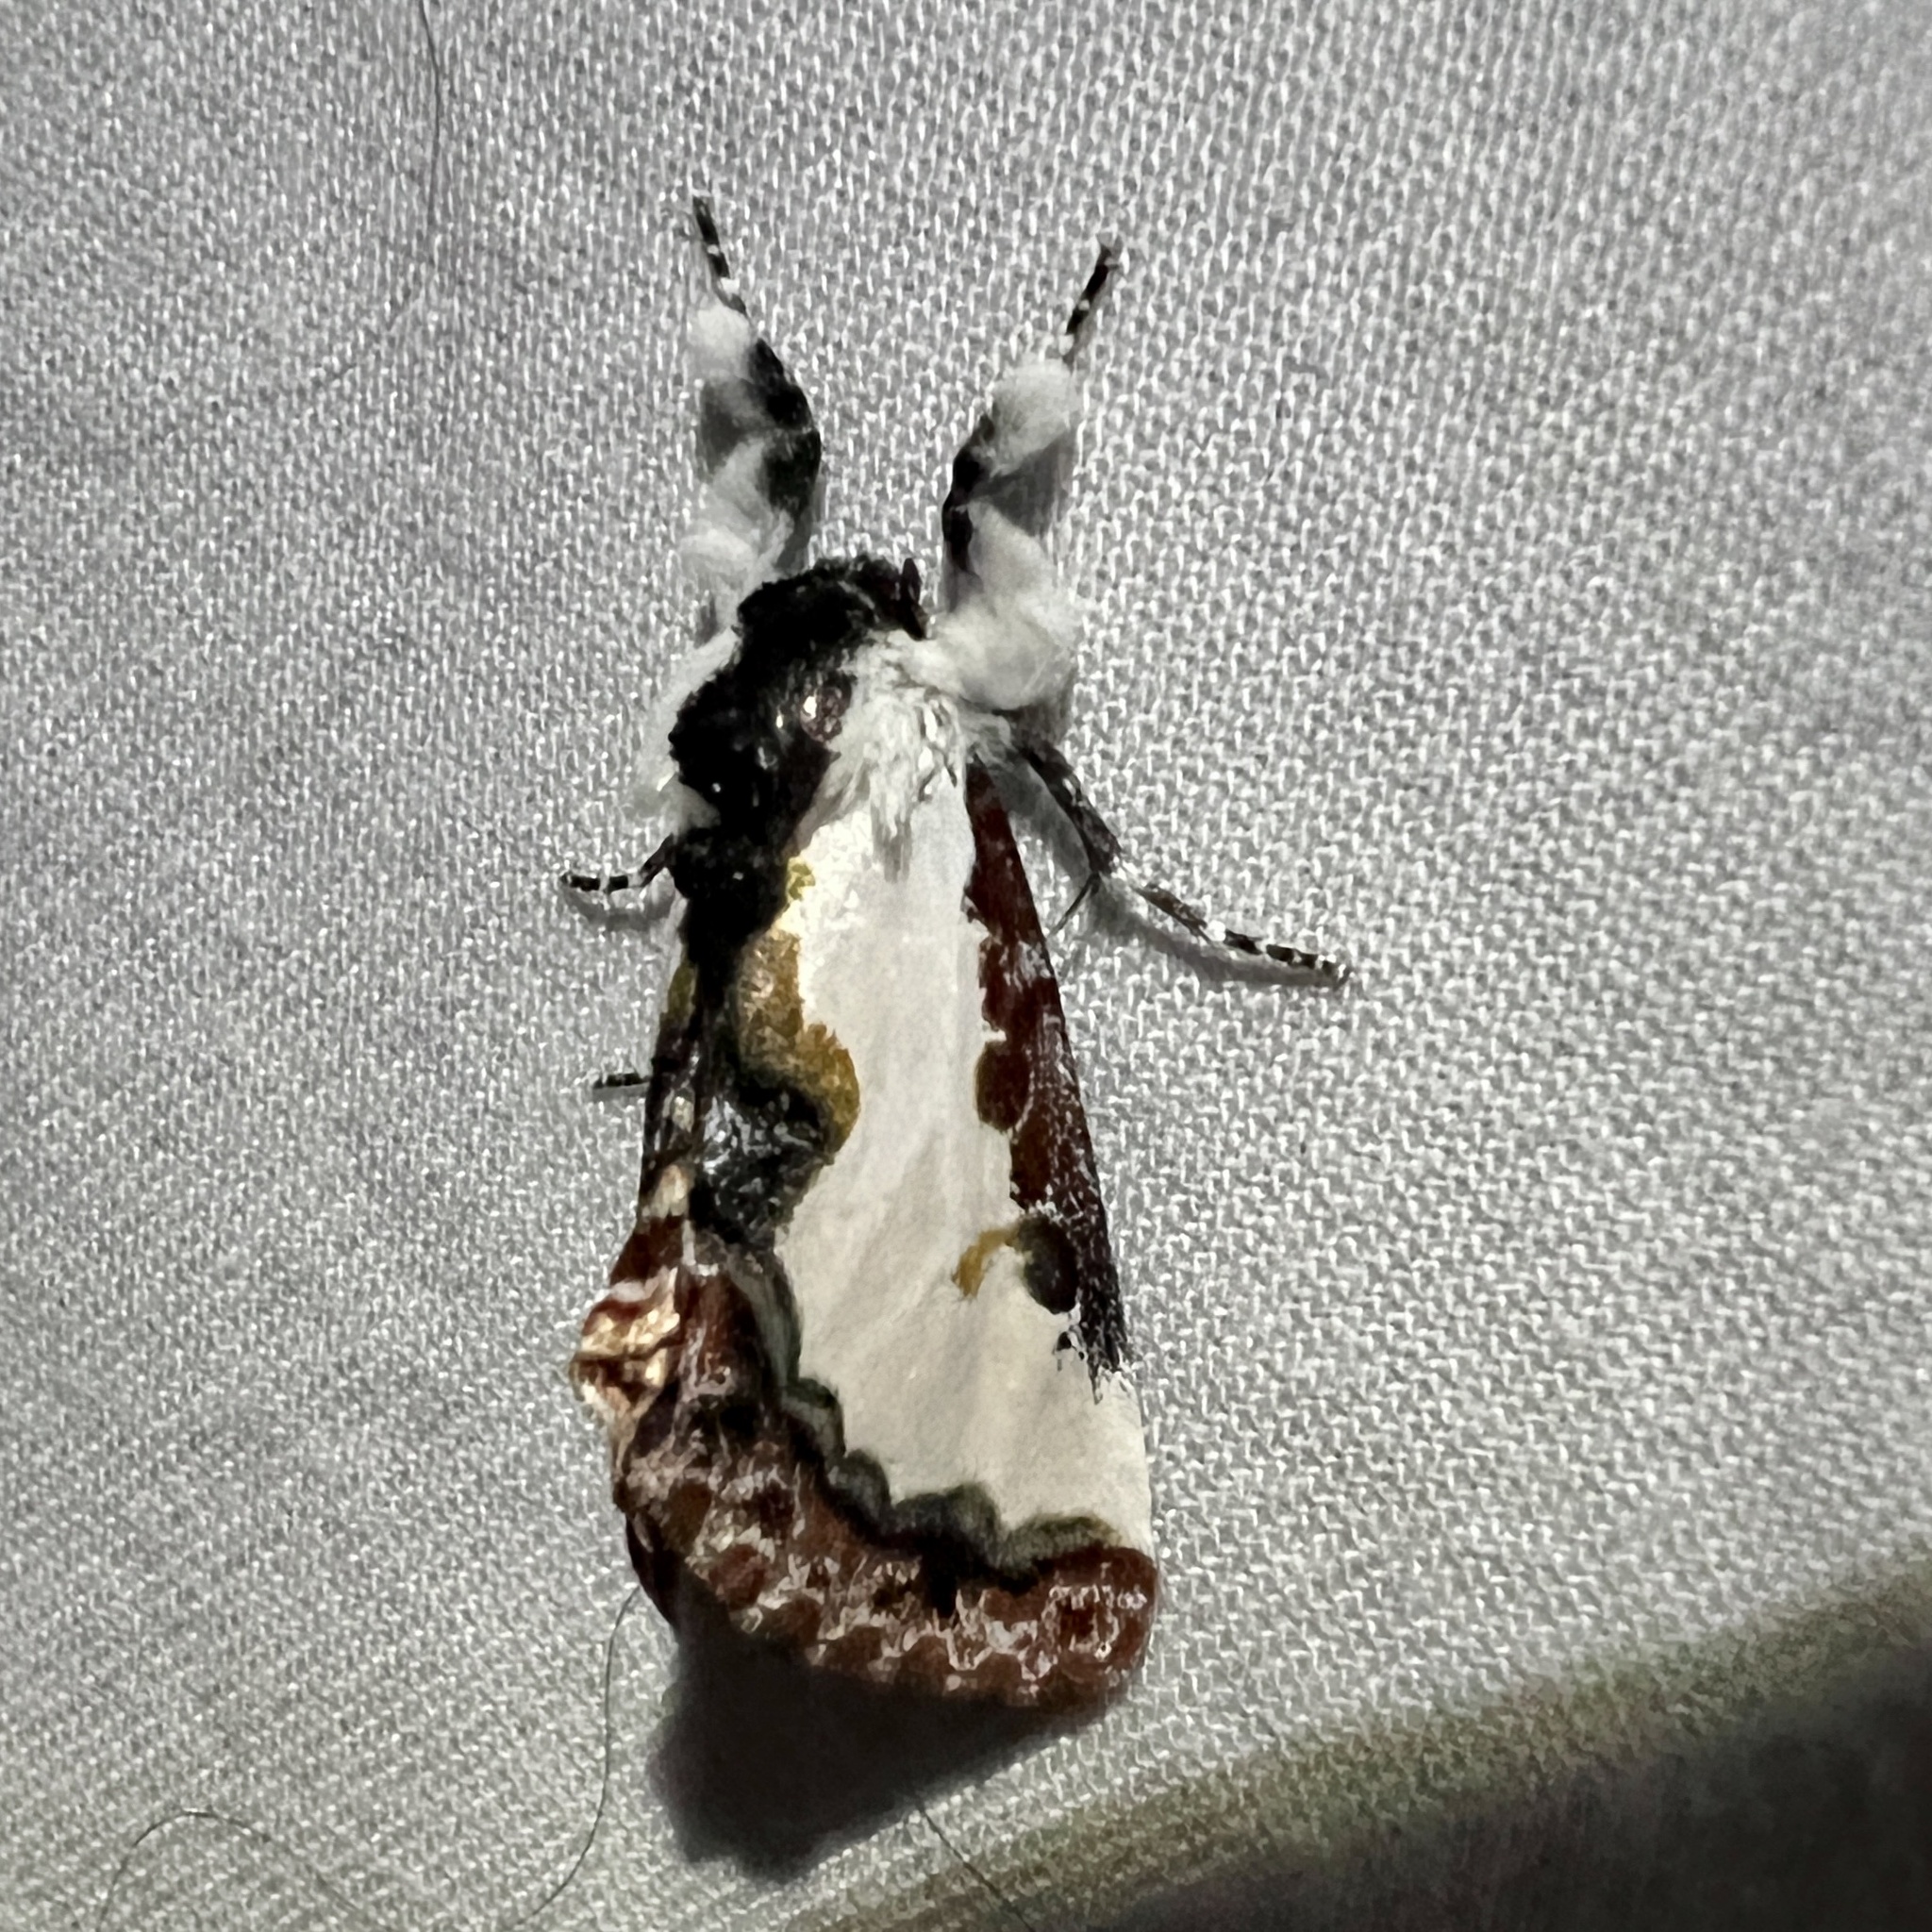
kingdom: Animalia
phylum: Arthropoda
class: Insecta
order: Lepidoptera
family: Noctuidae
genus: Eudryas
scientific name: Eudryas unio
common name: Pearly wood-nymph
